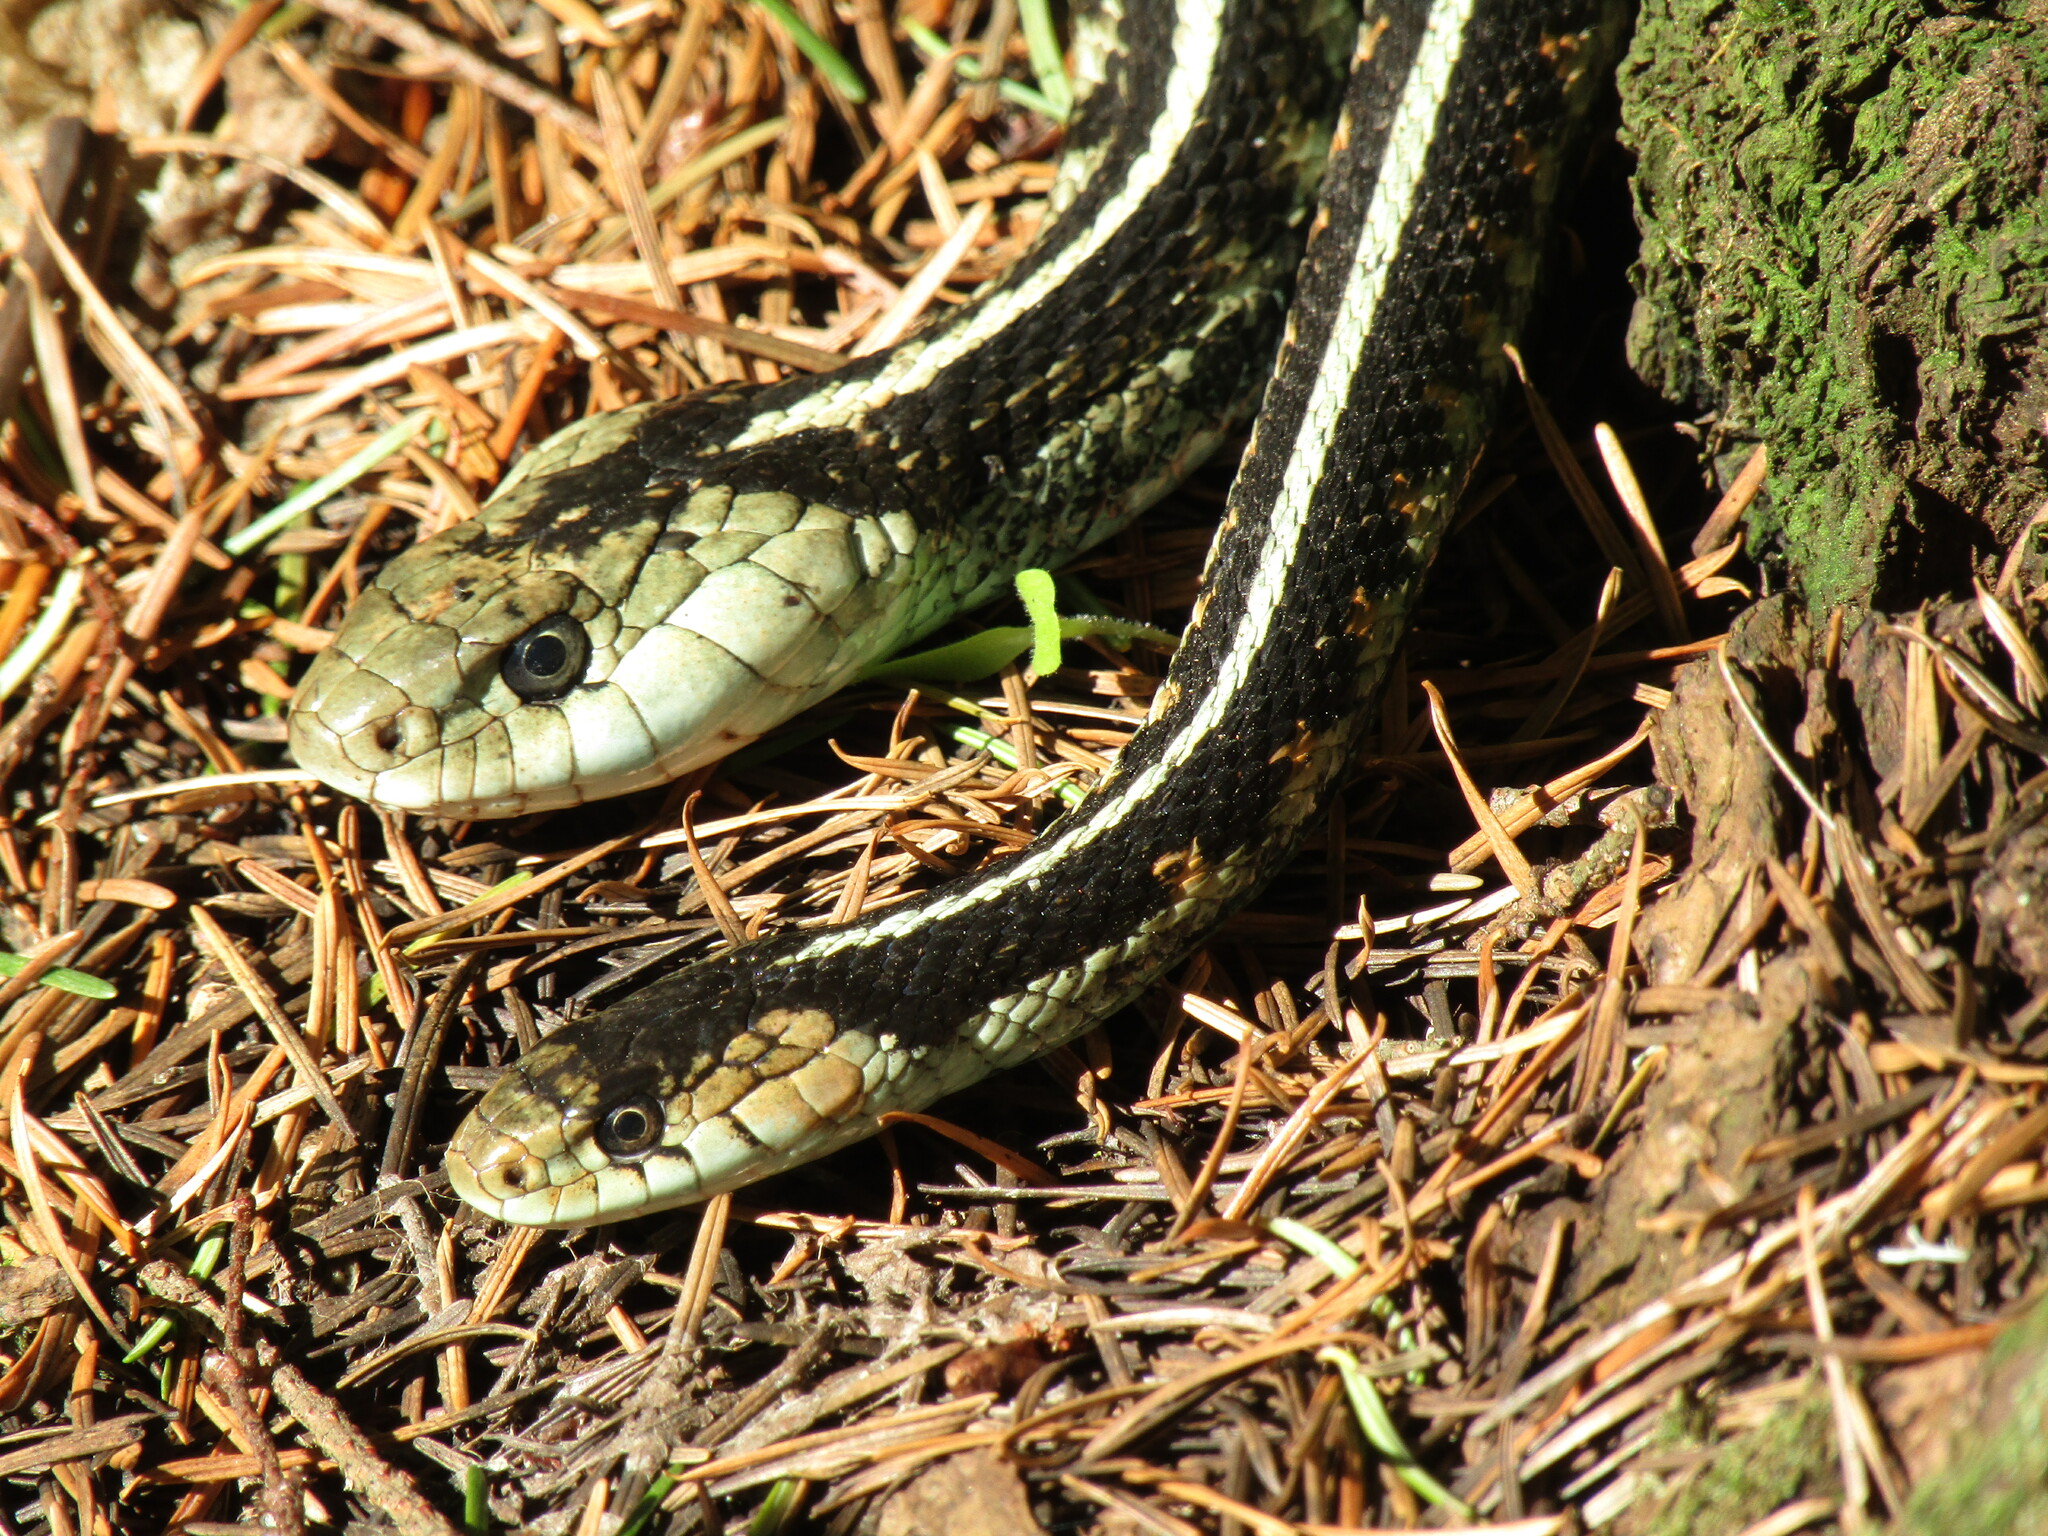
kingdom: Animalia
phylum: Chordata
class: Squamata
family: Colubridae
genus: Thamnophis
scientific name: Thamnophis sirtalis
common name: Common garter snake
